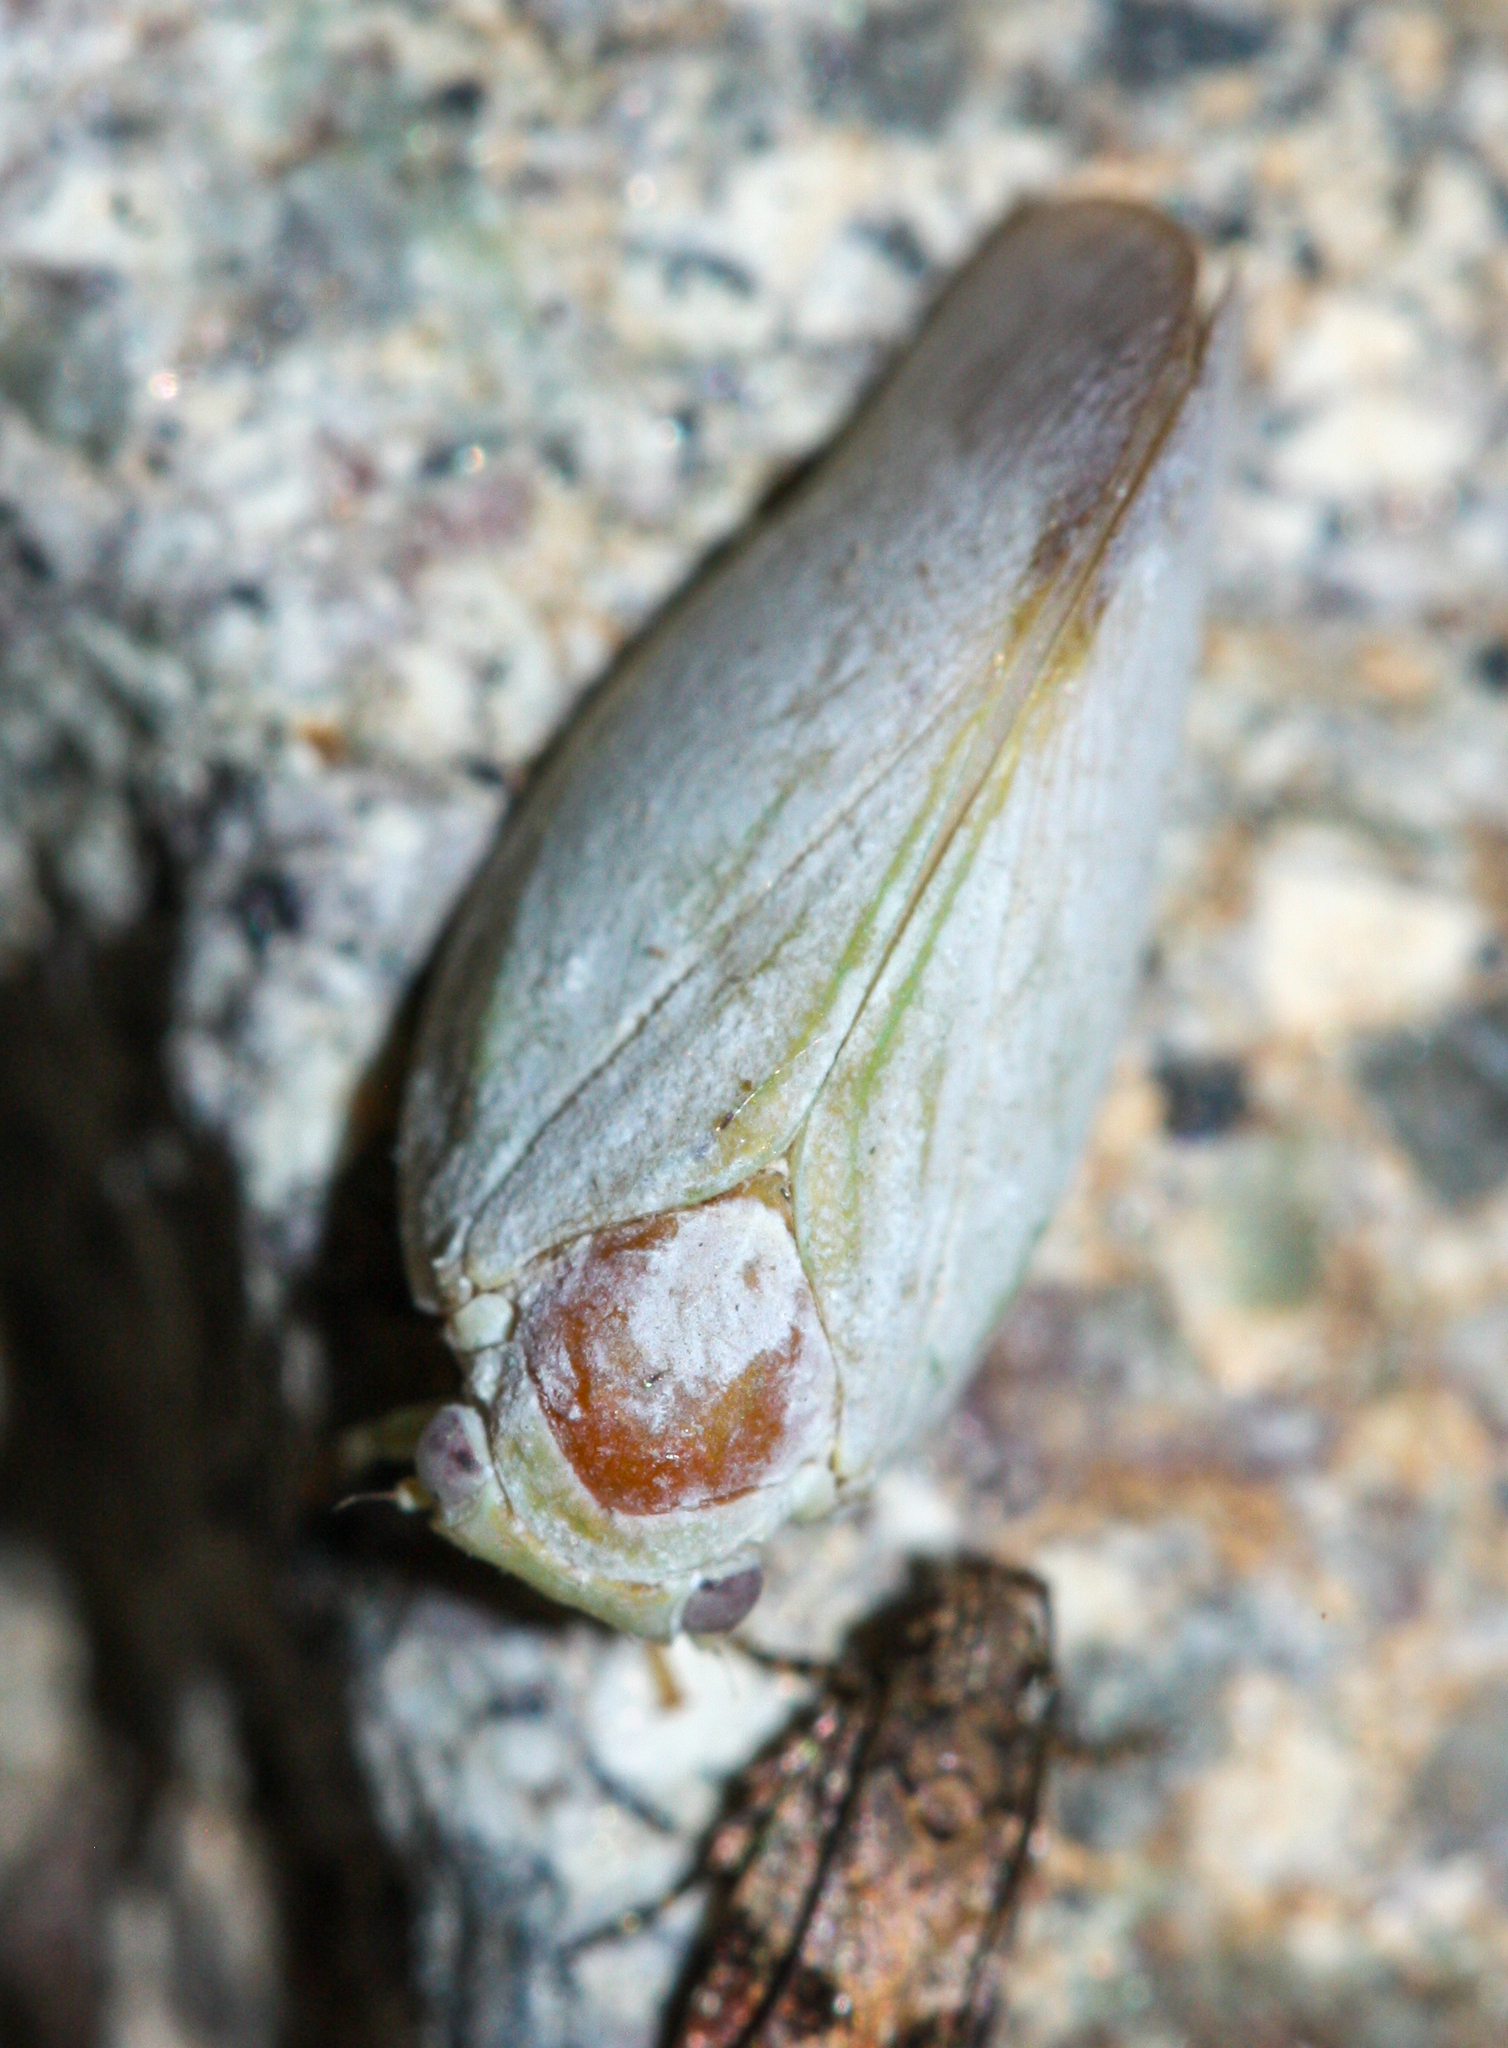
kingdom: Animalia
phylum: Arthropoda
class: Insecta
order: Hemiptera
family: Flatidae
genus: Flatormenis
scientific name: Flatormenis saucia
